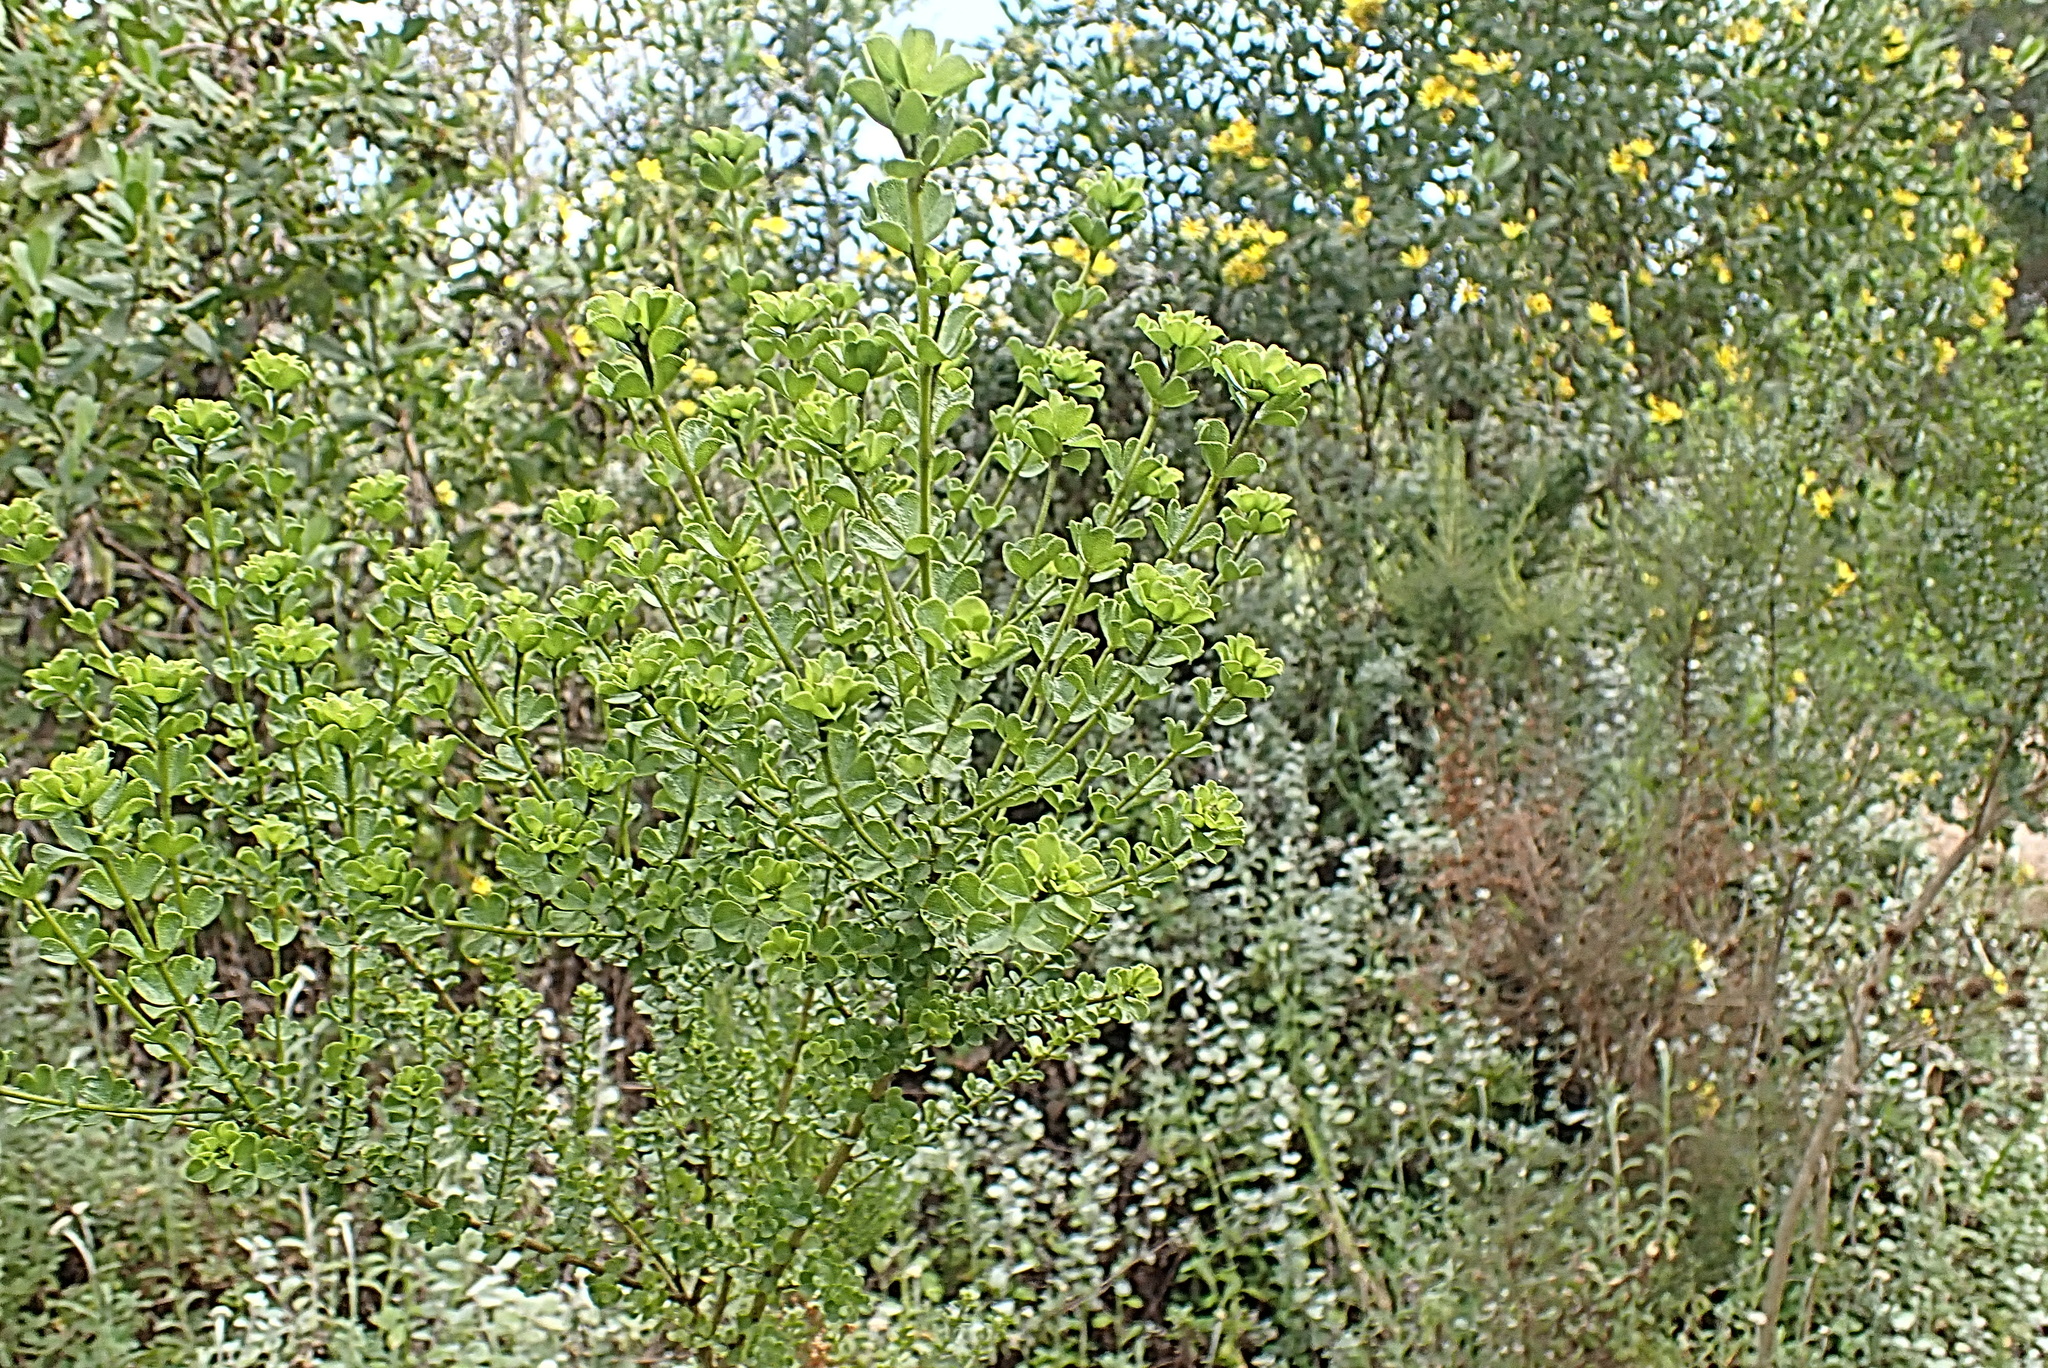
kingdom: Plantae
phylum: Tracheophyta
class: Magnoliopsida
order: Fabales
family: Fabaceae
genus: Psoralea
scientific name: Psoralea stachyera
